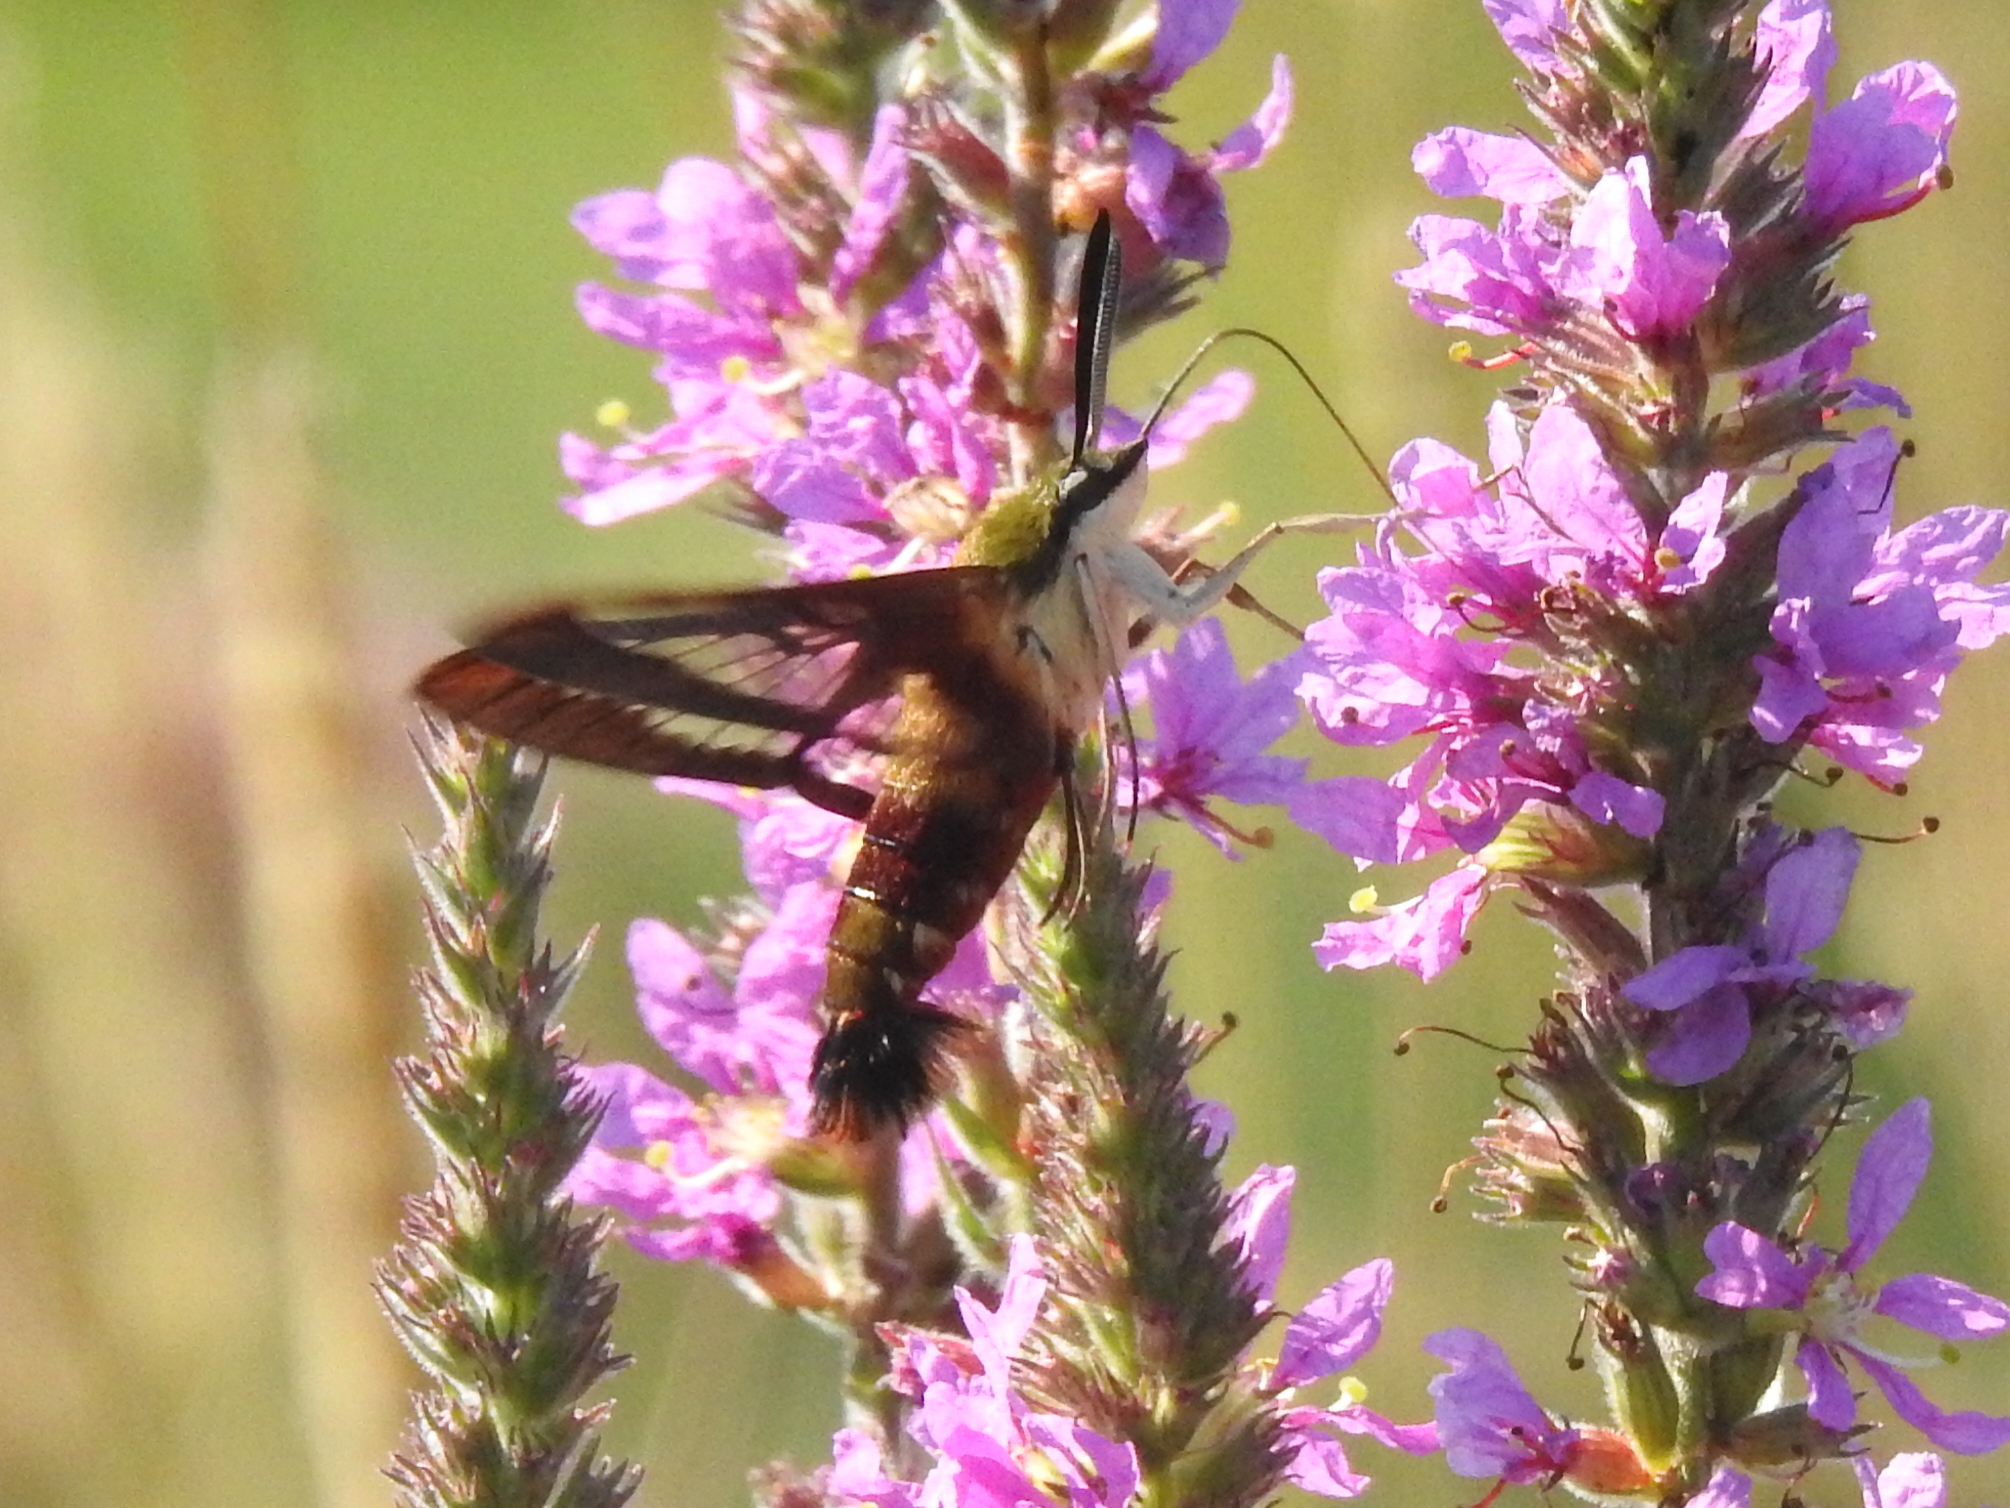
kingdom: Animalia
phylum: Arthropoda
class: Insecta
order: Lepidoptera
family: Sphingidae
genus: Hemaris
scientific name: Hemaris thysbe
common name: Common clear-wing
